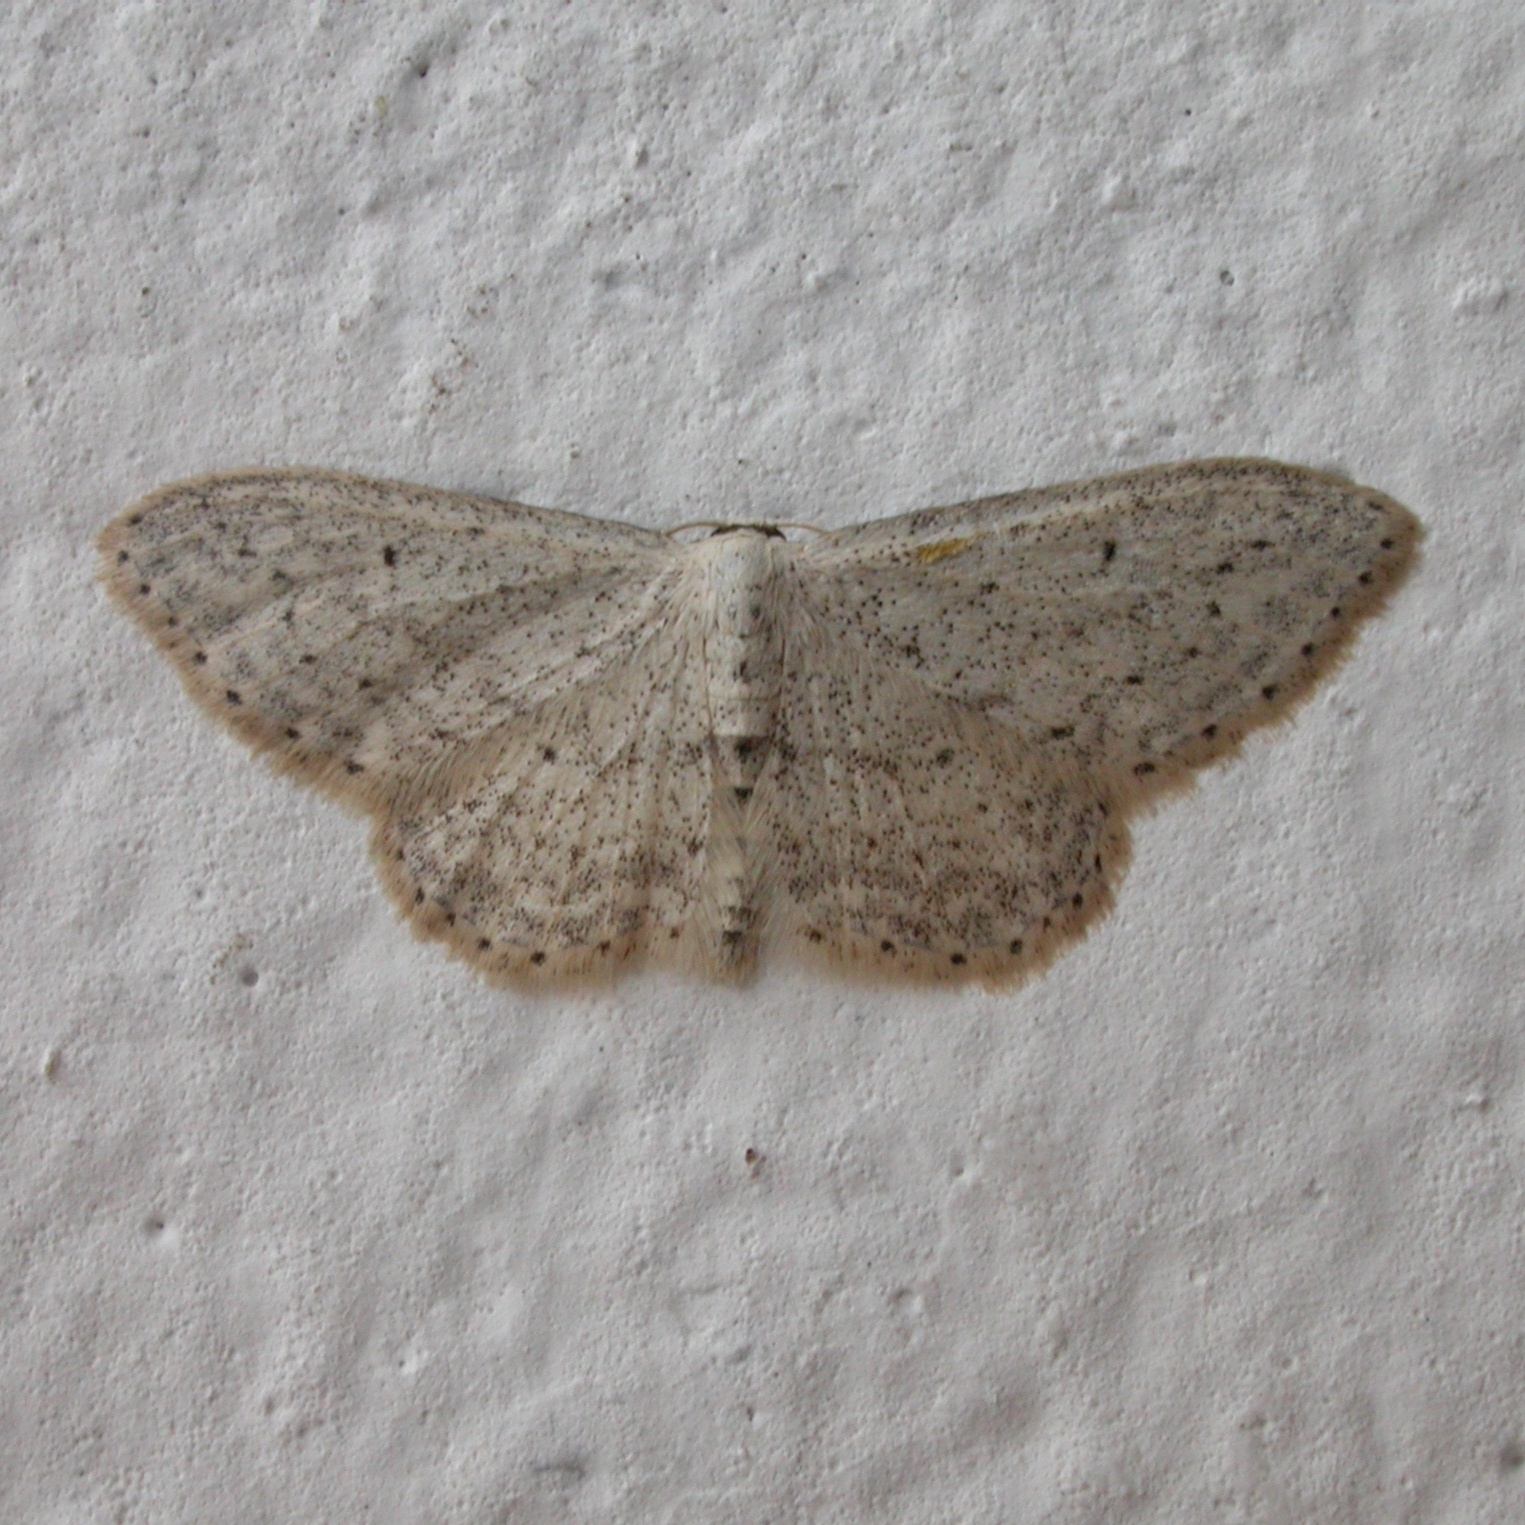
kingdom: Animalia
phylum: Arthropoda
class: Insecta
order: Lepidoptera
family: Geometridae
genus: Idaea
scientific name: Idaea seriata
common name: Small dusty wave
